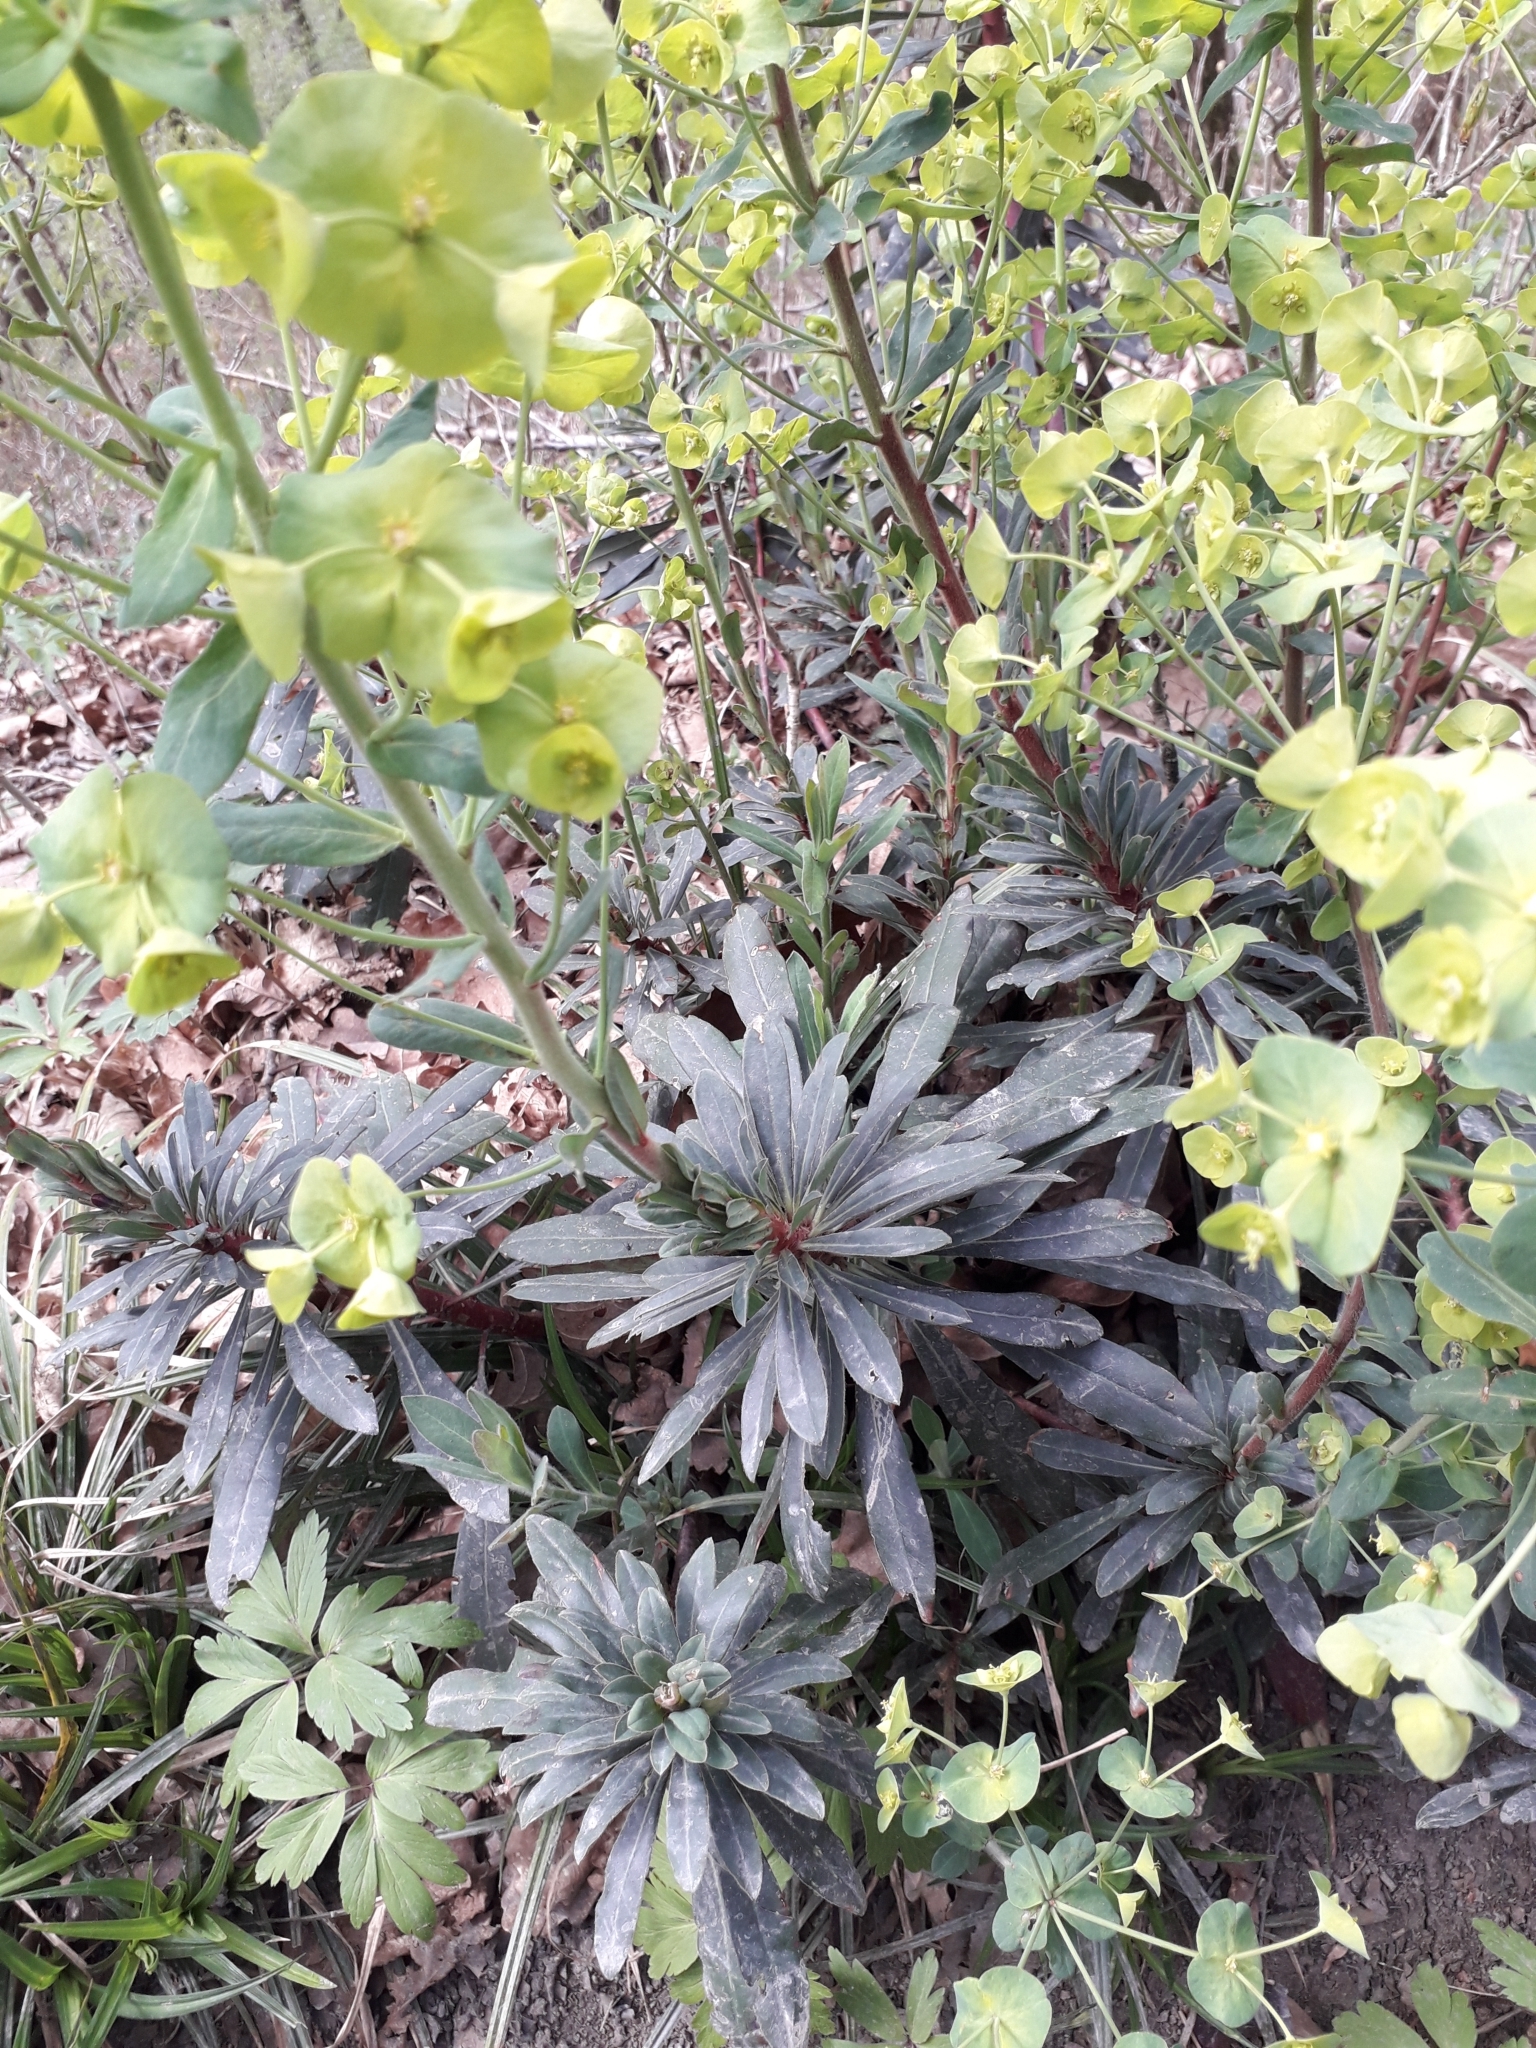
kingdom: Plantae
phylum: Tracheophyta
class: Magnoliopsida
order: Malpighiales
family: Euphorbiaceae
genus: Euphorbia
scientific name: Euphorbia amygdaloides
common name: Wood spurge
